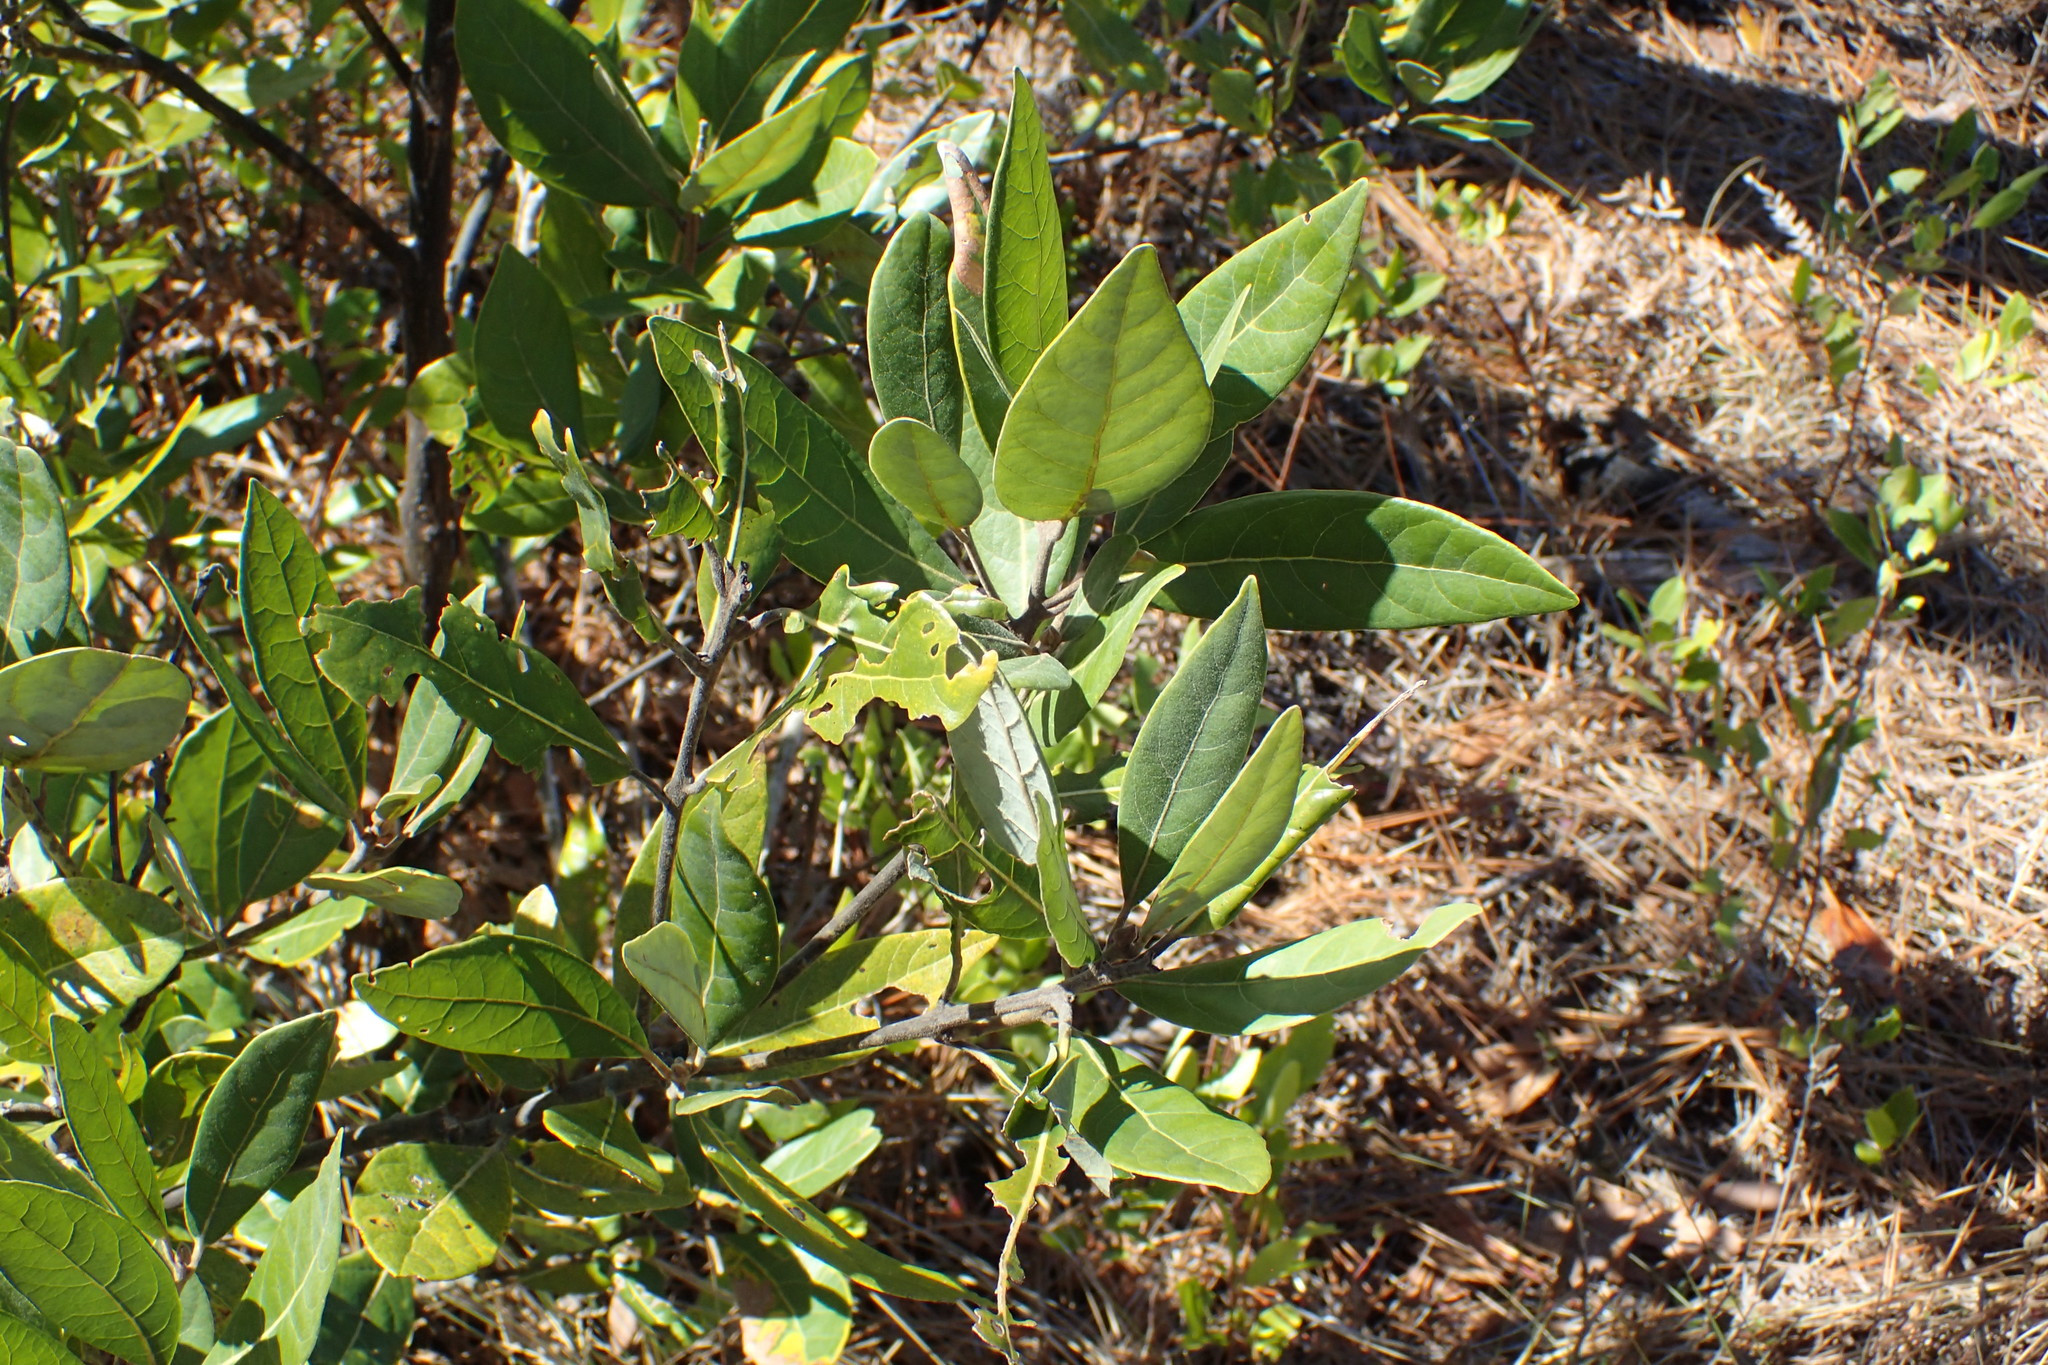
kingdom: Plantae
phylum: Tracheophyta
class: Magnoliopsida
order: Laurales
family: Lauraceae
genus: Persea
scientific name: Persea palustris
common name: Swampbay
